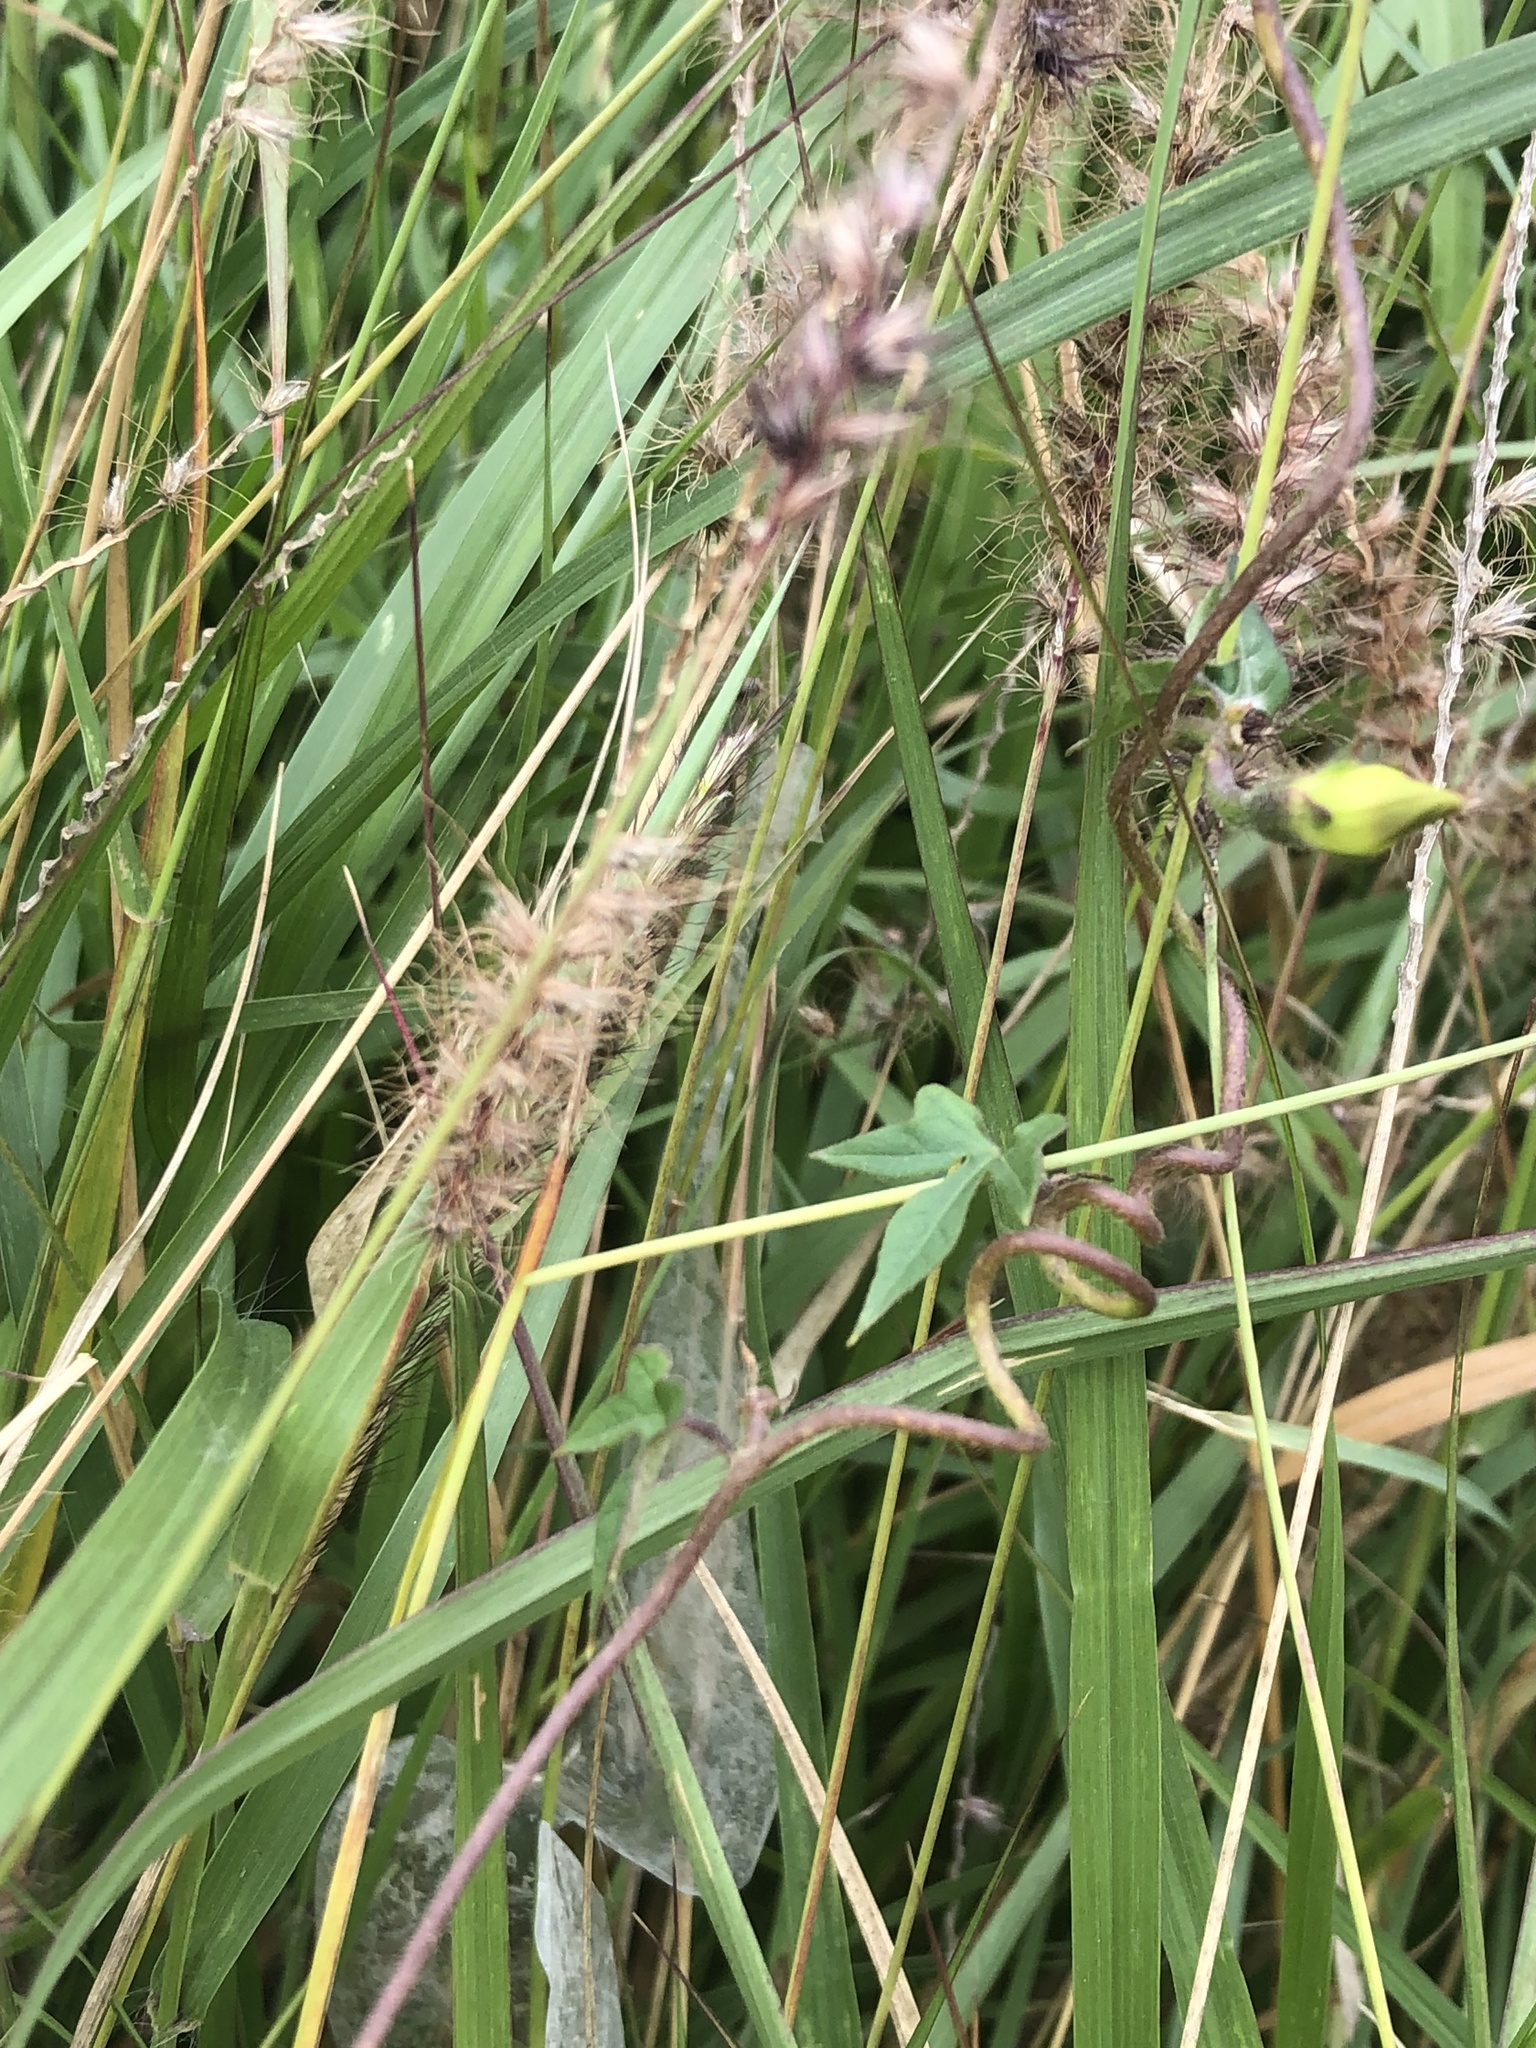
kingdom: Plantae
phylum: Tracheophyta
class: Magnoliopsida
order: Solanales
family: Convolvulaceae
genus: Ipomoea
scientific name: Ipomoea purpurea
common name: Common morning-glory
